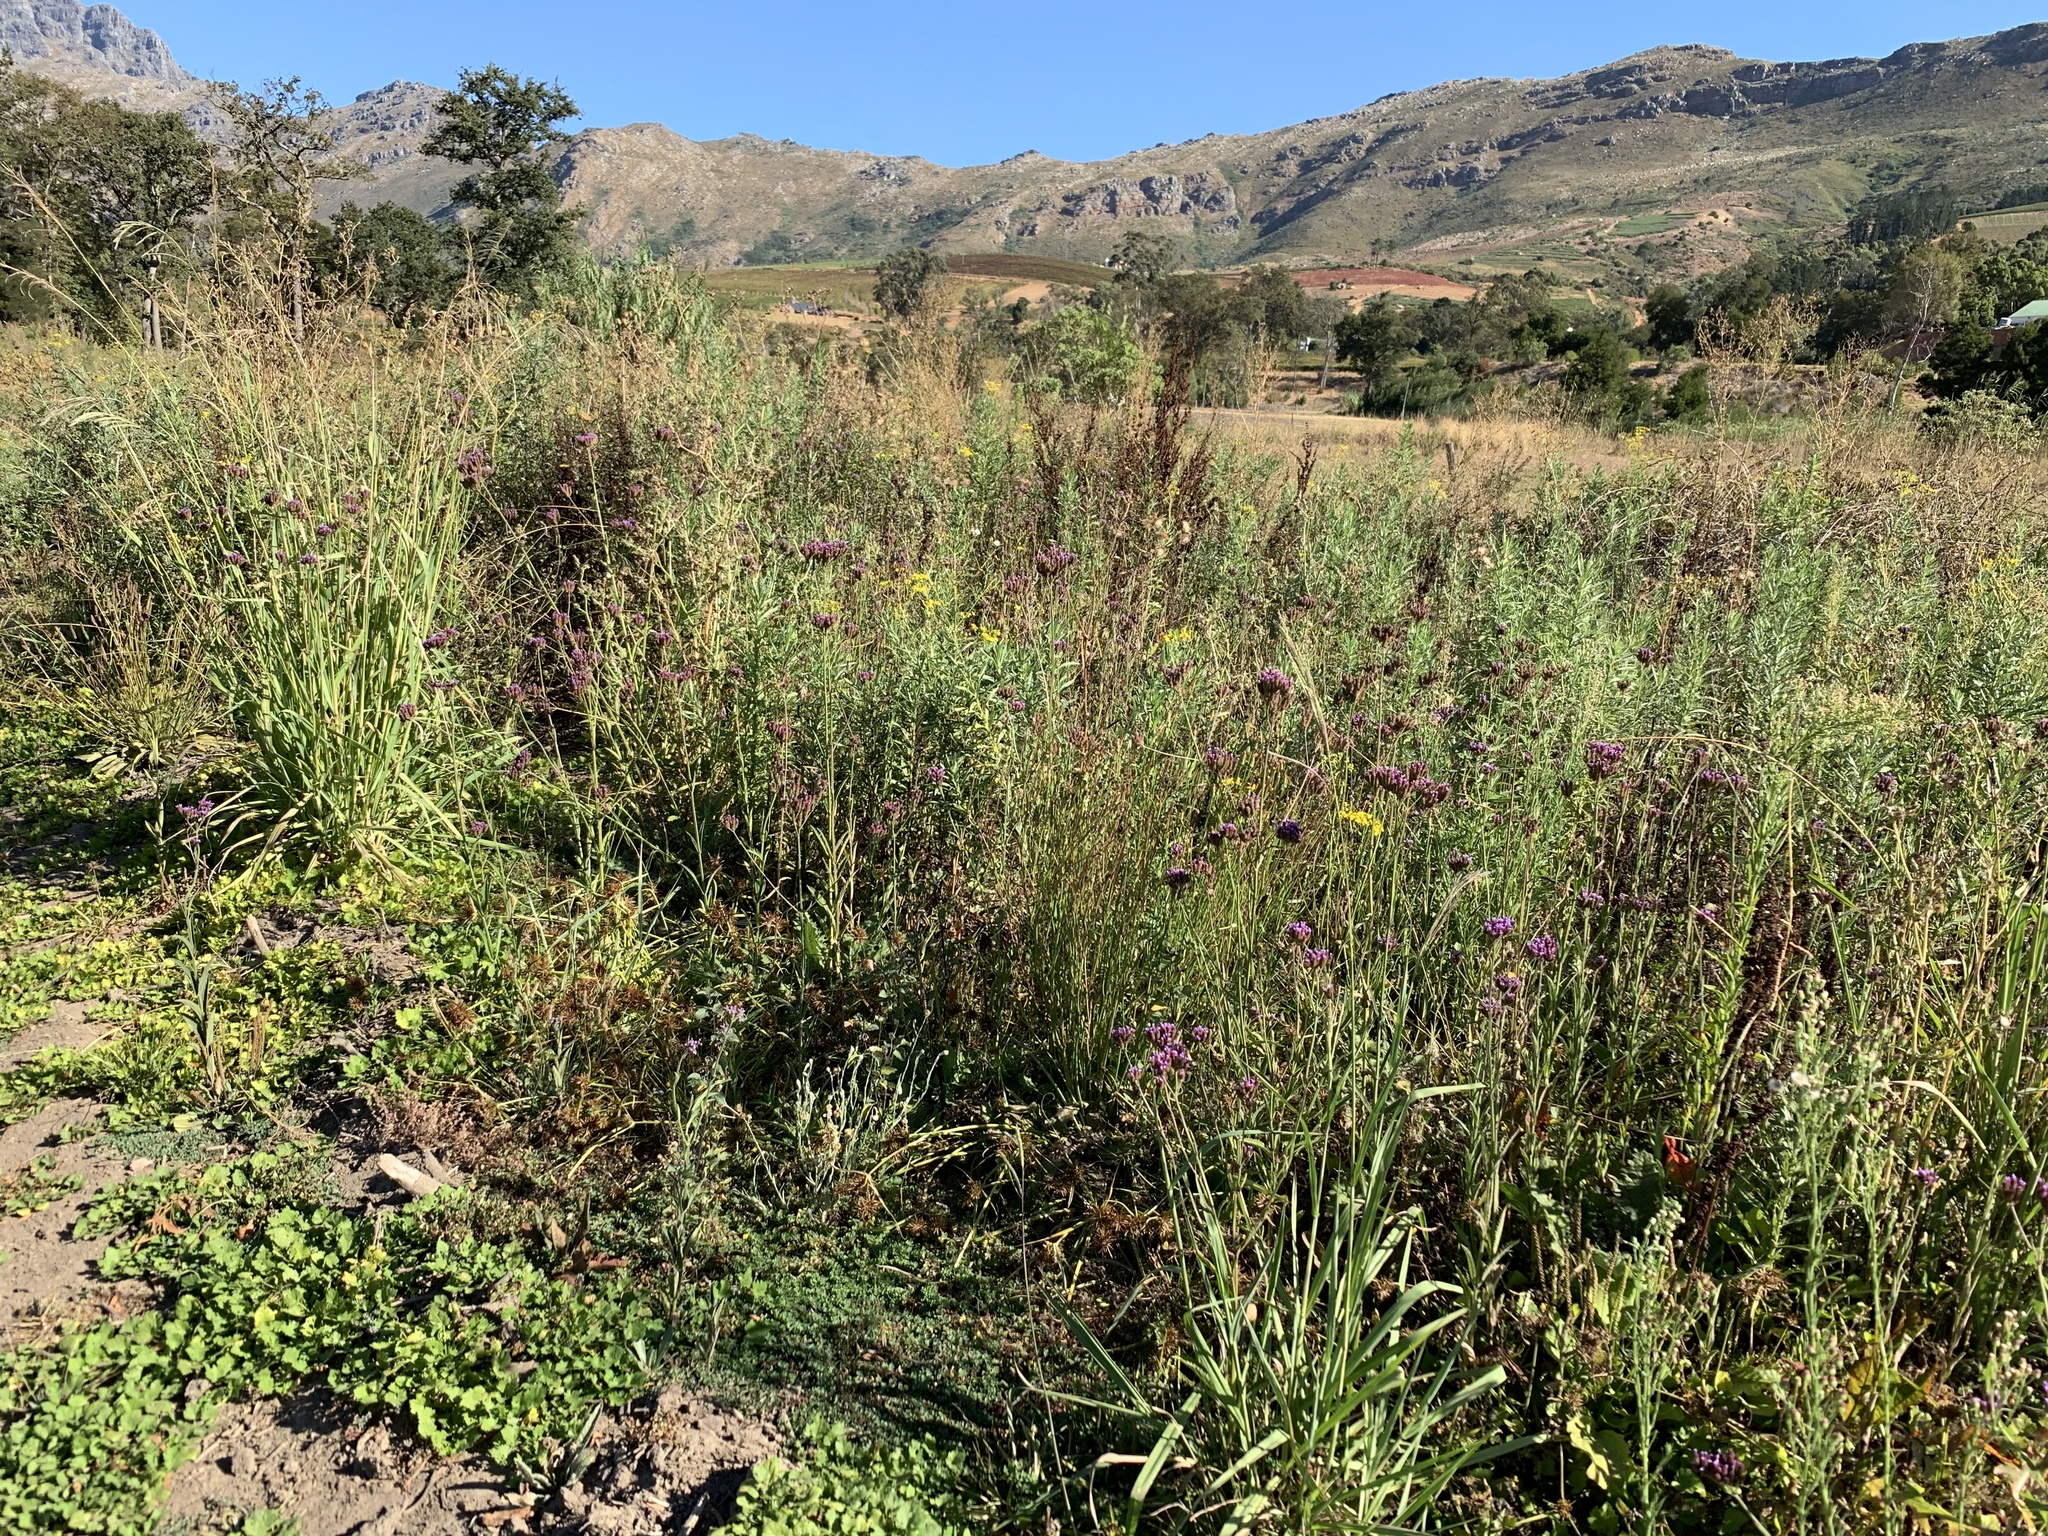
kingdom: Plantae
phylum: Tracheophyta
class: Magnoliopsida
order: Lamiales
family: Verbenaceae
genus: Verbena
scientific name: Verbena bonariensis
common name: Purpletop vervain
